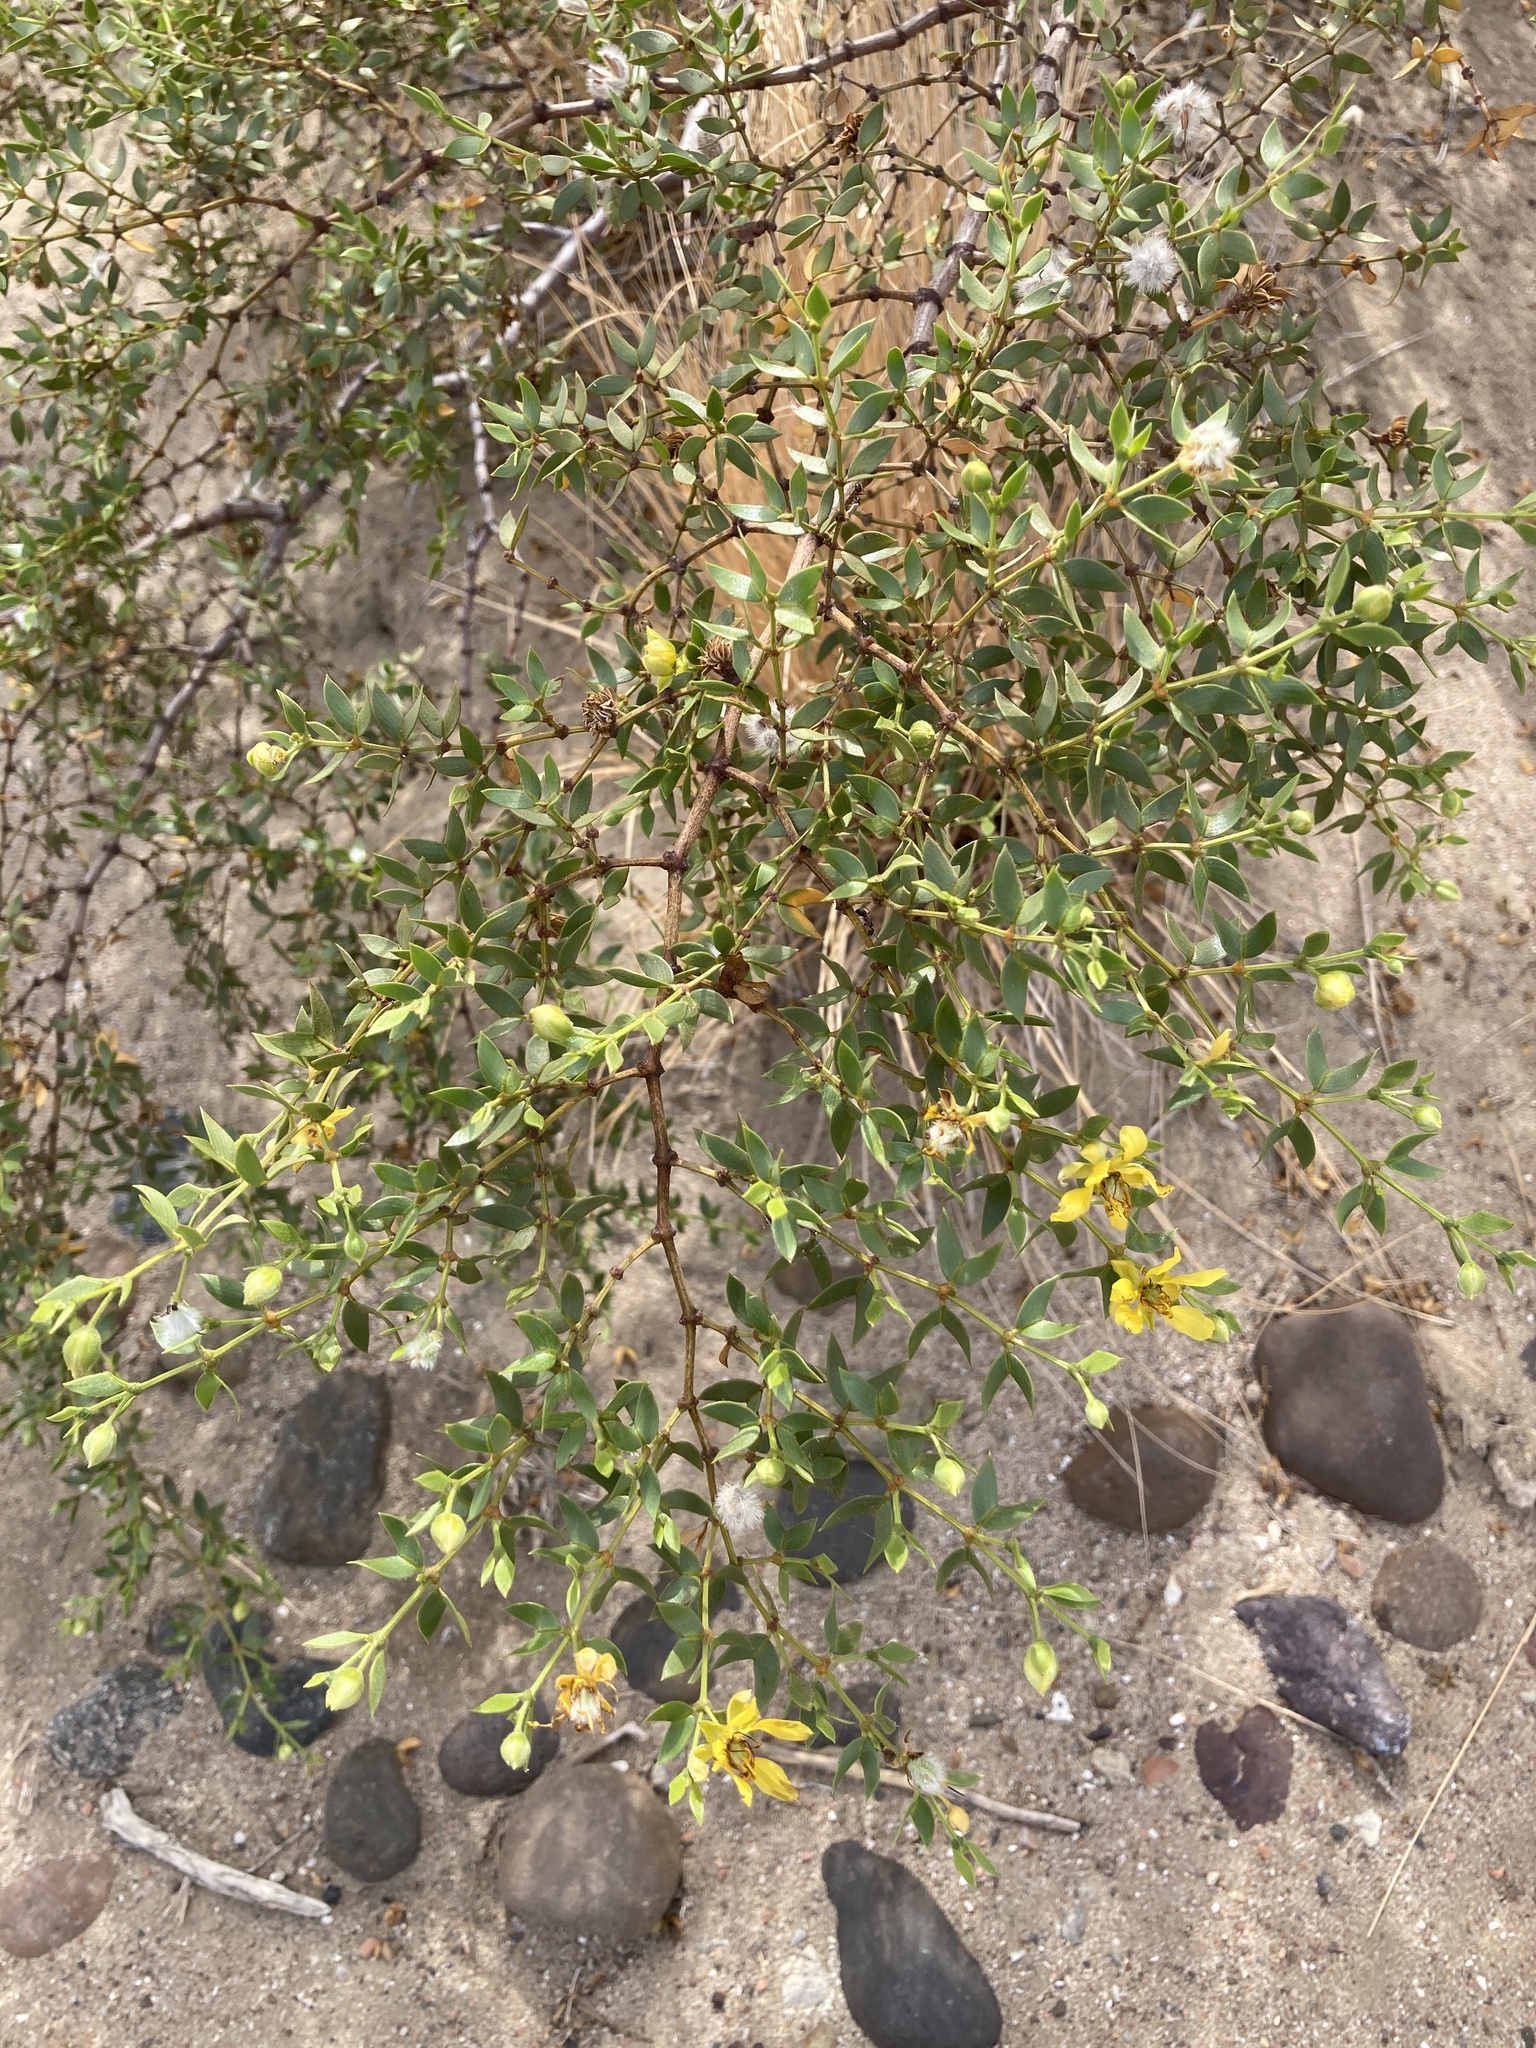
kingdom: Plantae
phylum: Tracheophyta
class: Magnoliopsida
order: Zygophyllales
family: Zygophyllaceae
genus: Larrea
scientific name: Larrea divaricata
